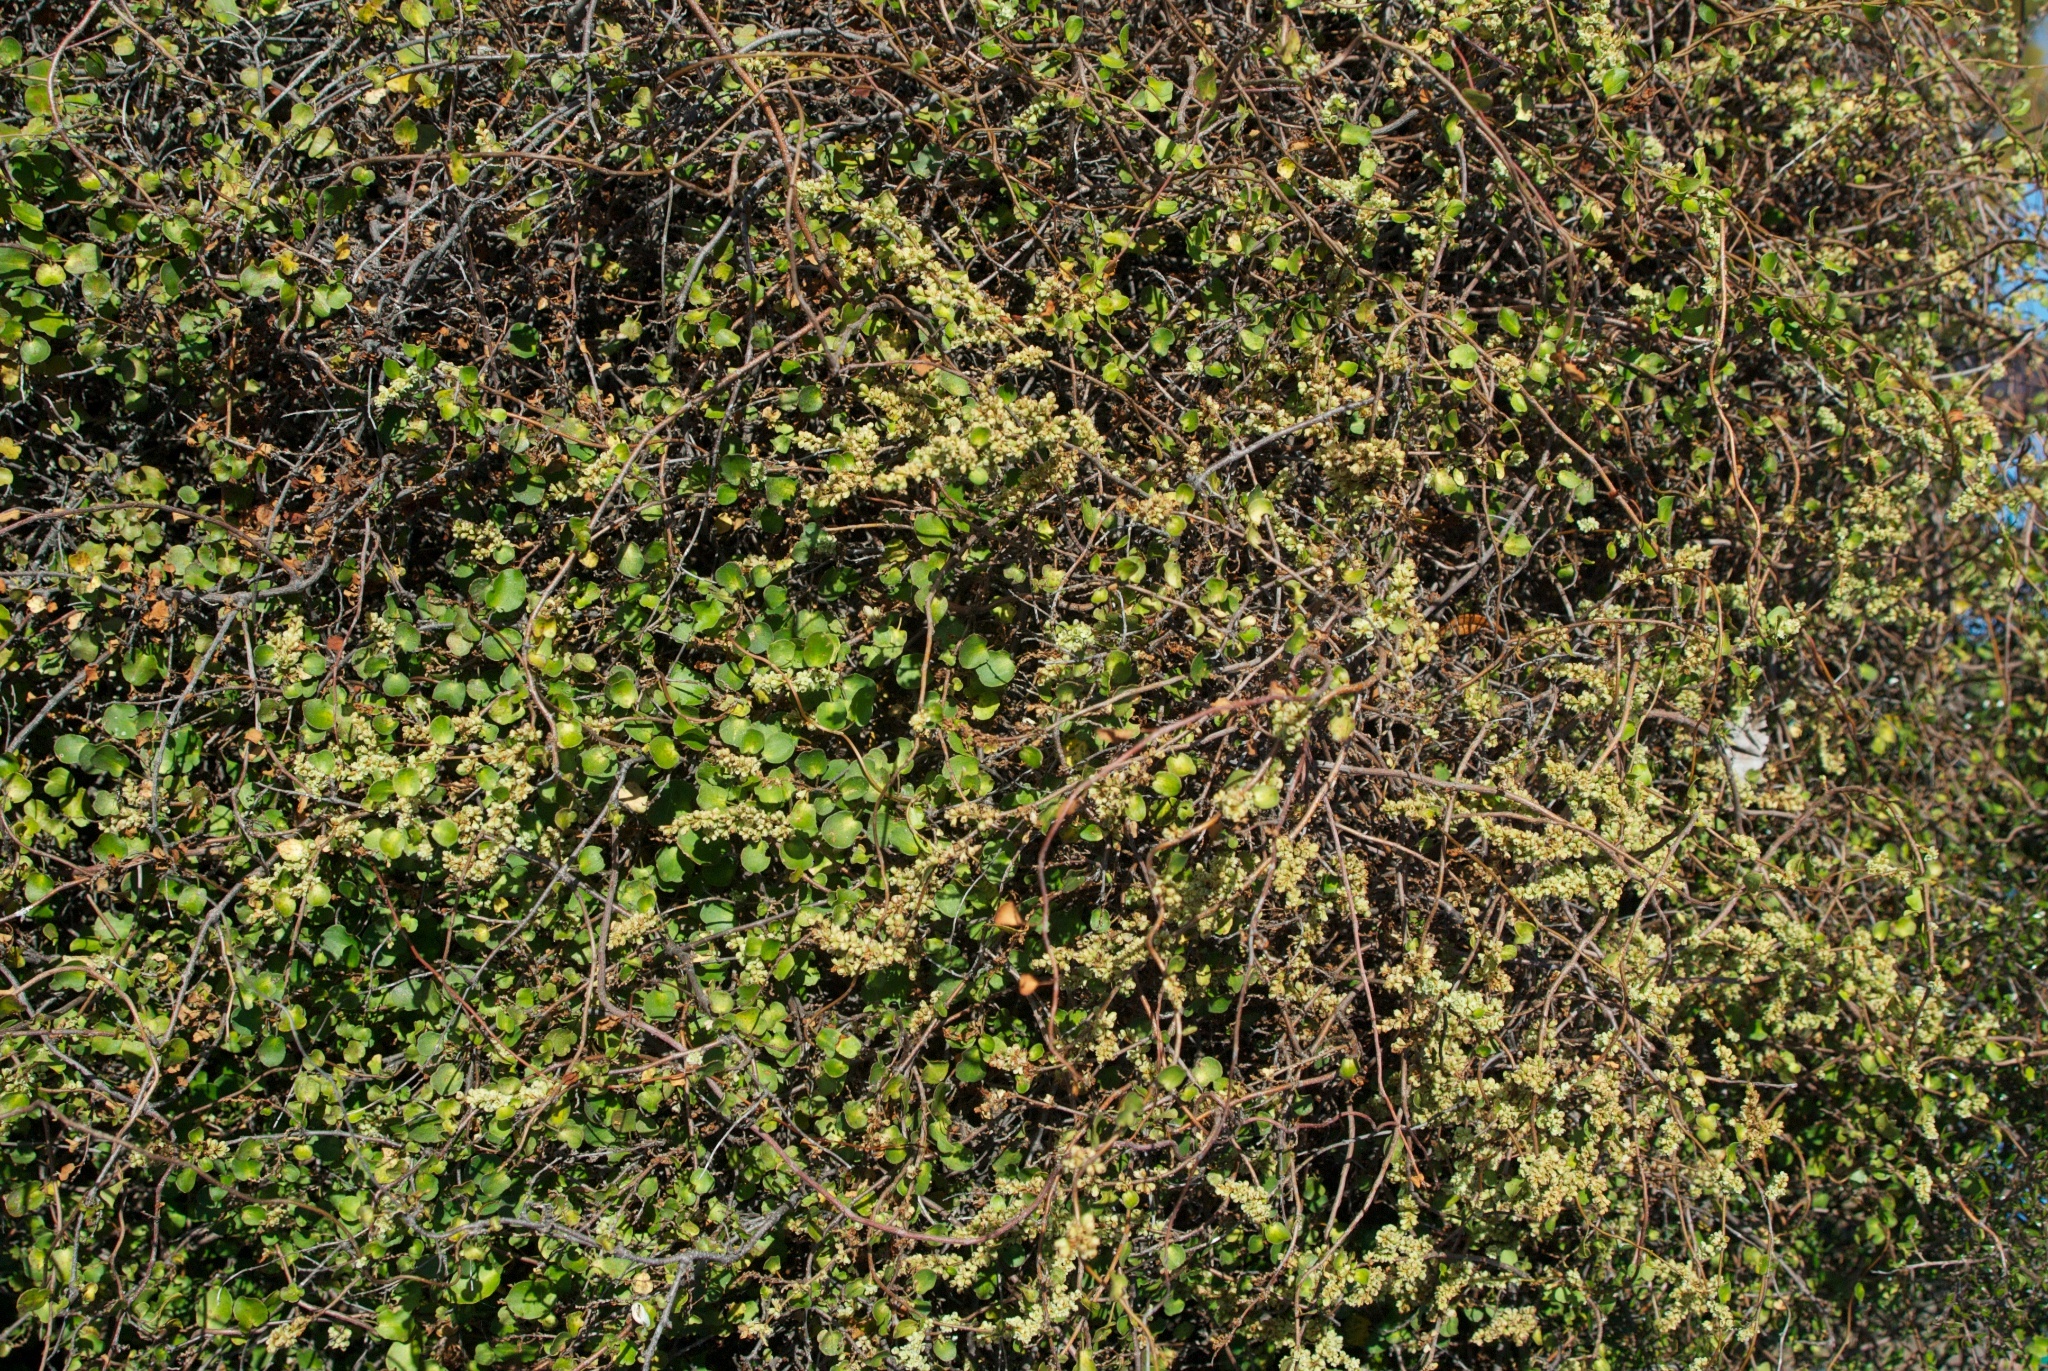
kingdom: Plantae
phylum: Tracheophyta
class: Magnoliopsida
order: Caryophyllales
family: Polygonaceae
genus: Muehlenbeckia
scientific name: Muehlenbeckia complexa
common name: Wireplant
